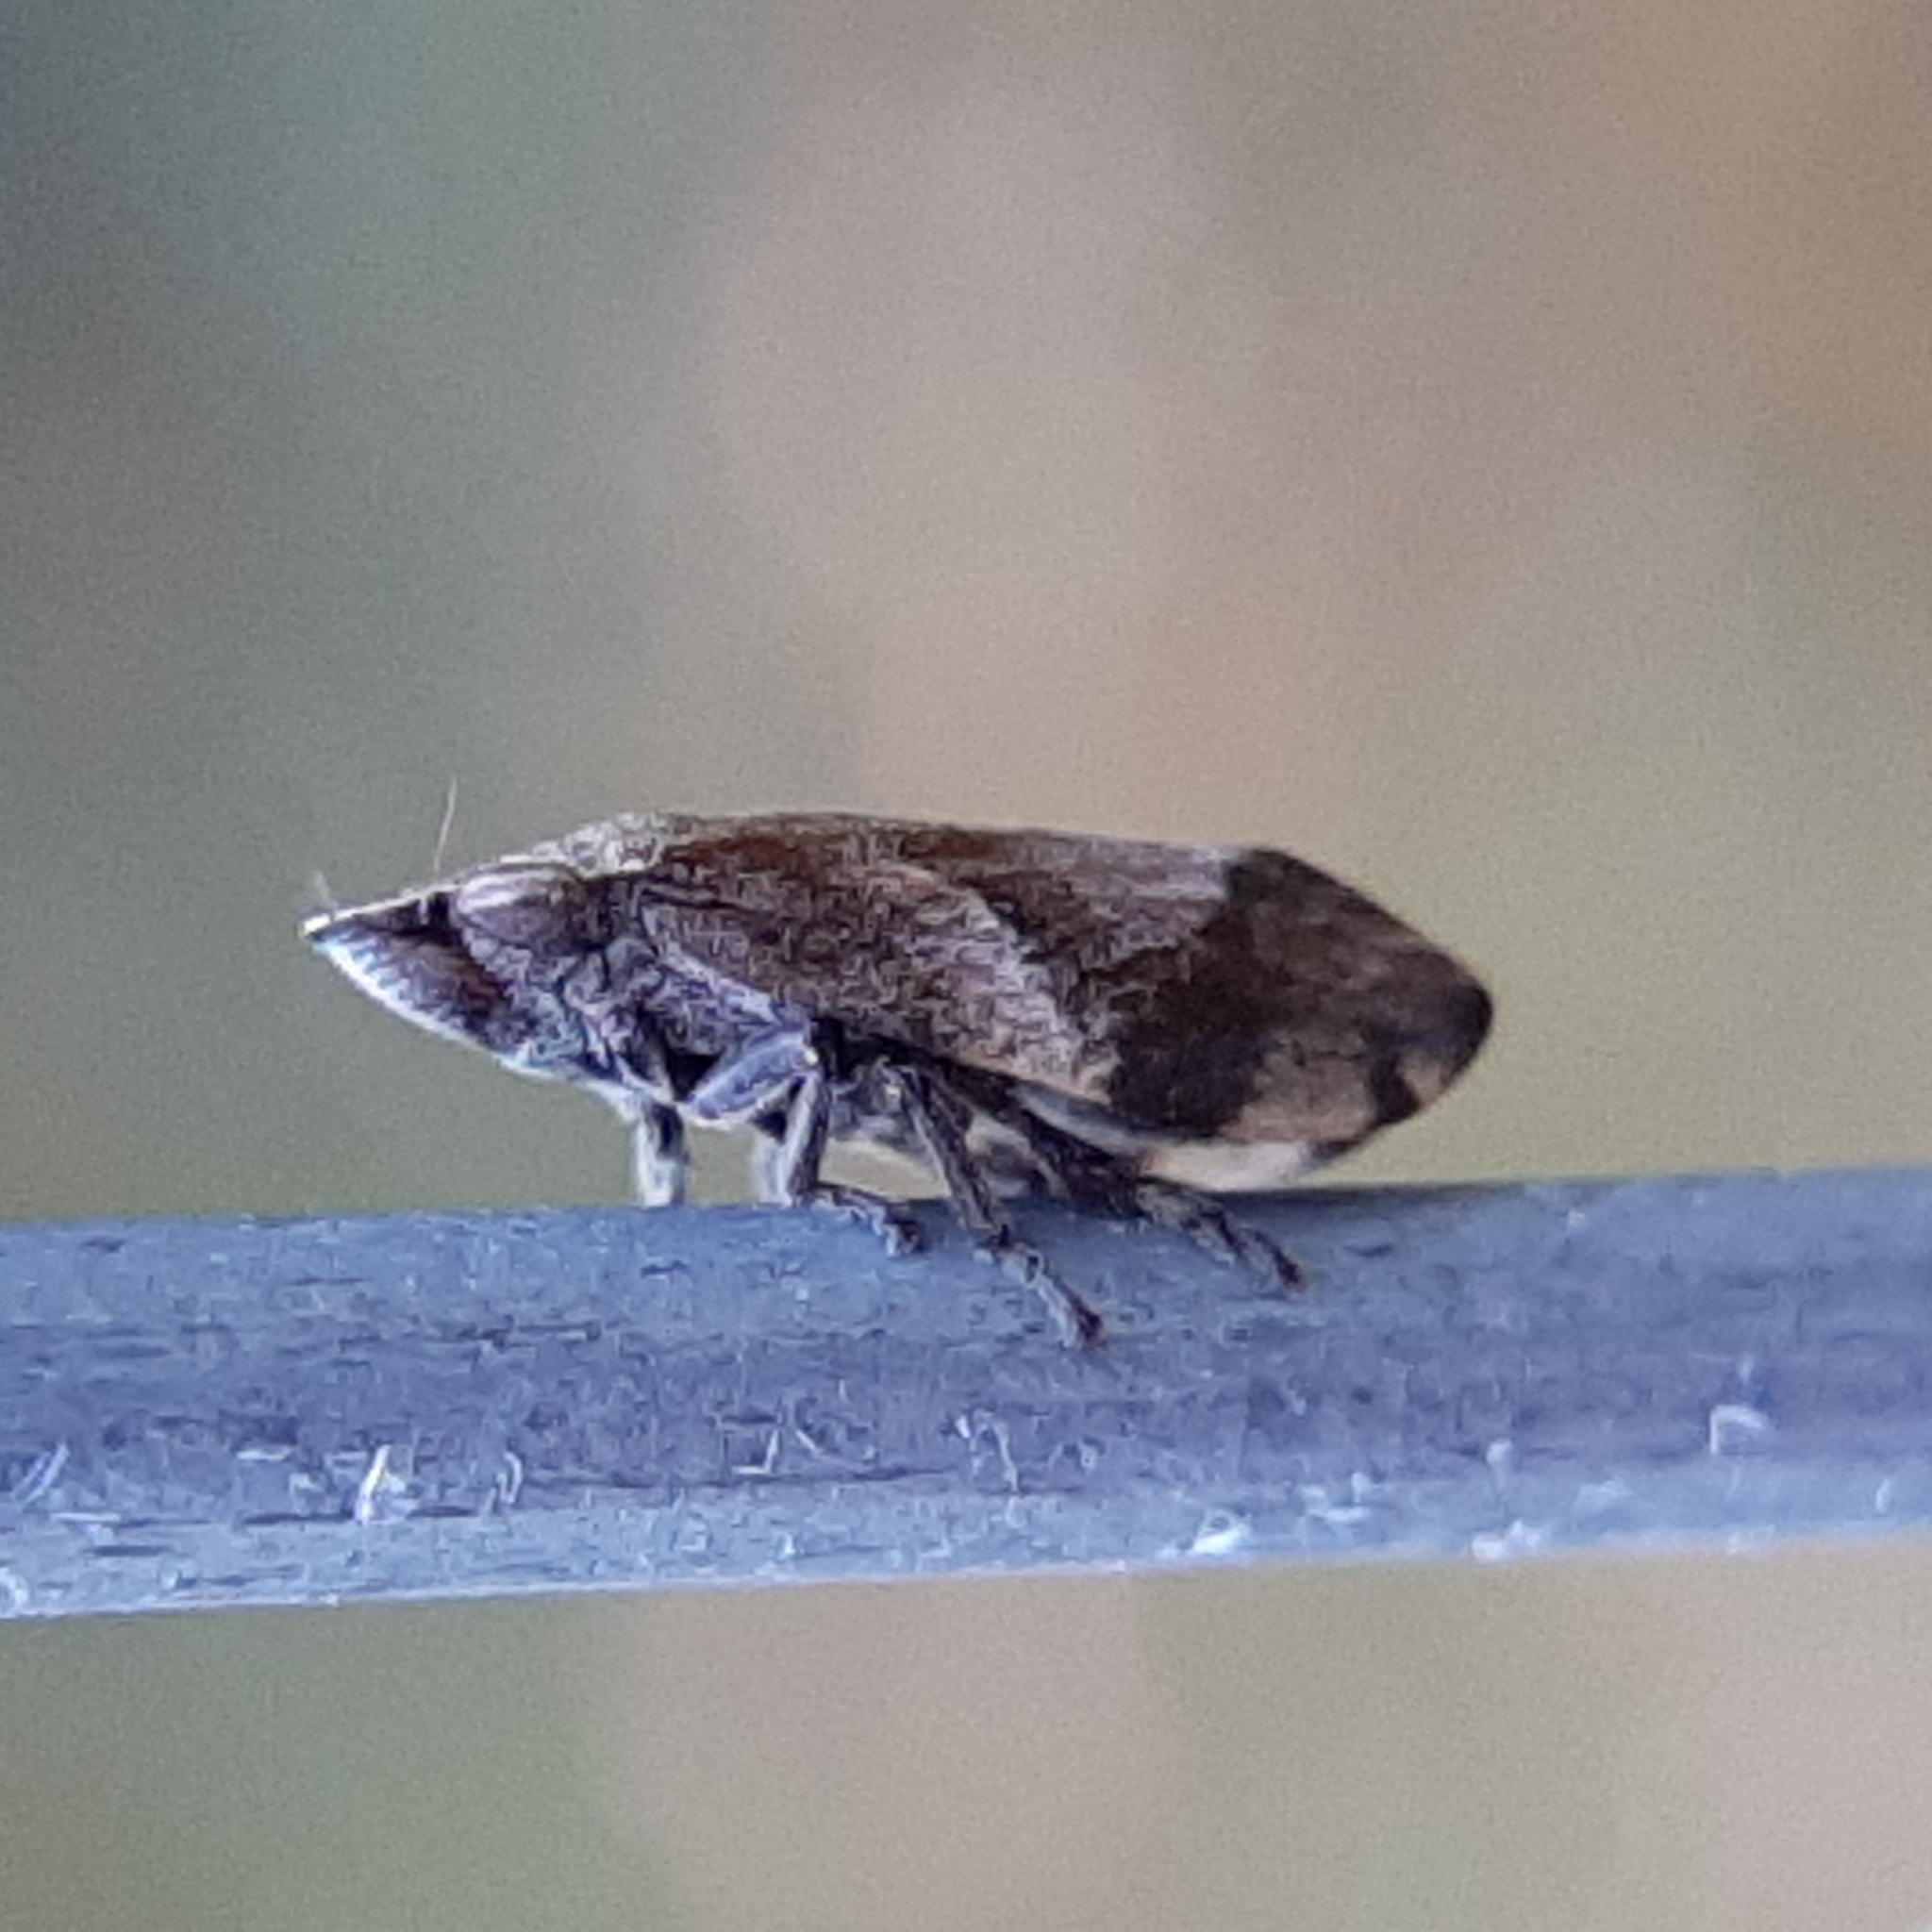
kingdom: Animalia
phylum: Arthropoda
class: Insecta
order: Hemiptera
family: Aphrophoridae
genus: Lepyronia
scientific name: Lepyronia quadrangularis
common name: Diamond-backed spittlebug
